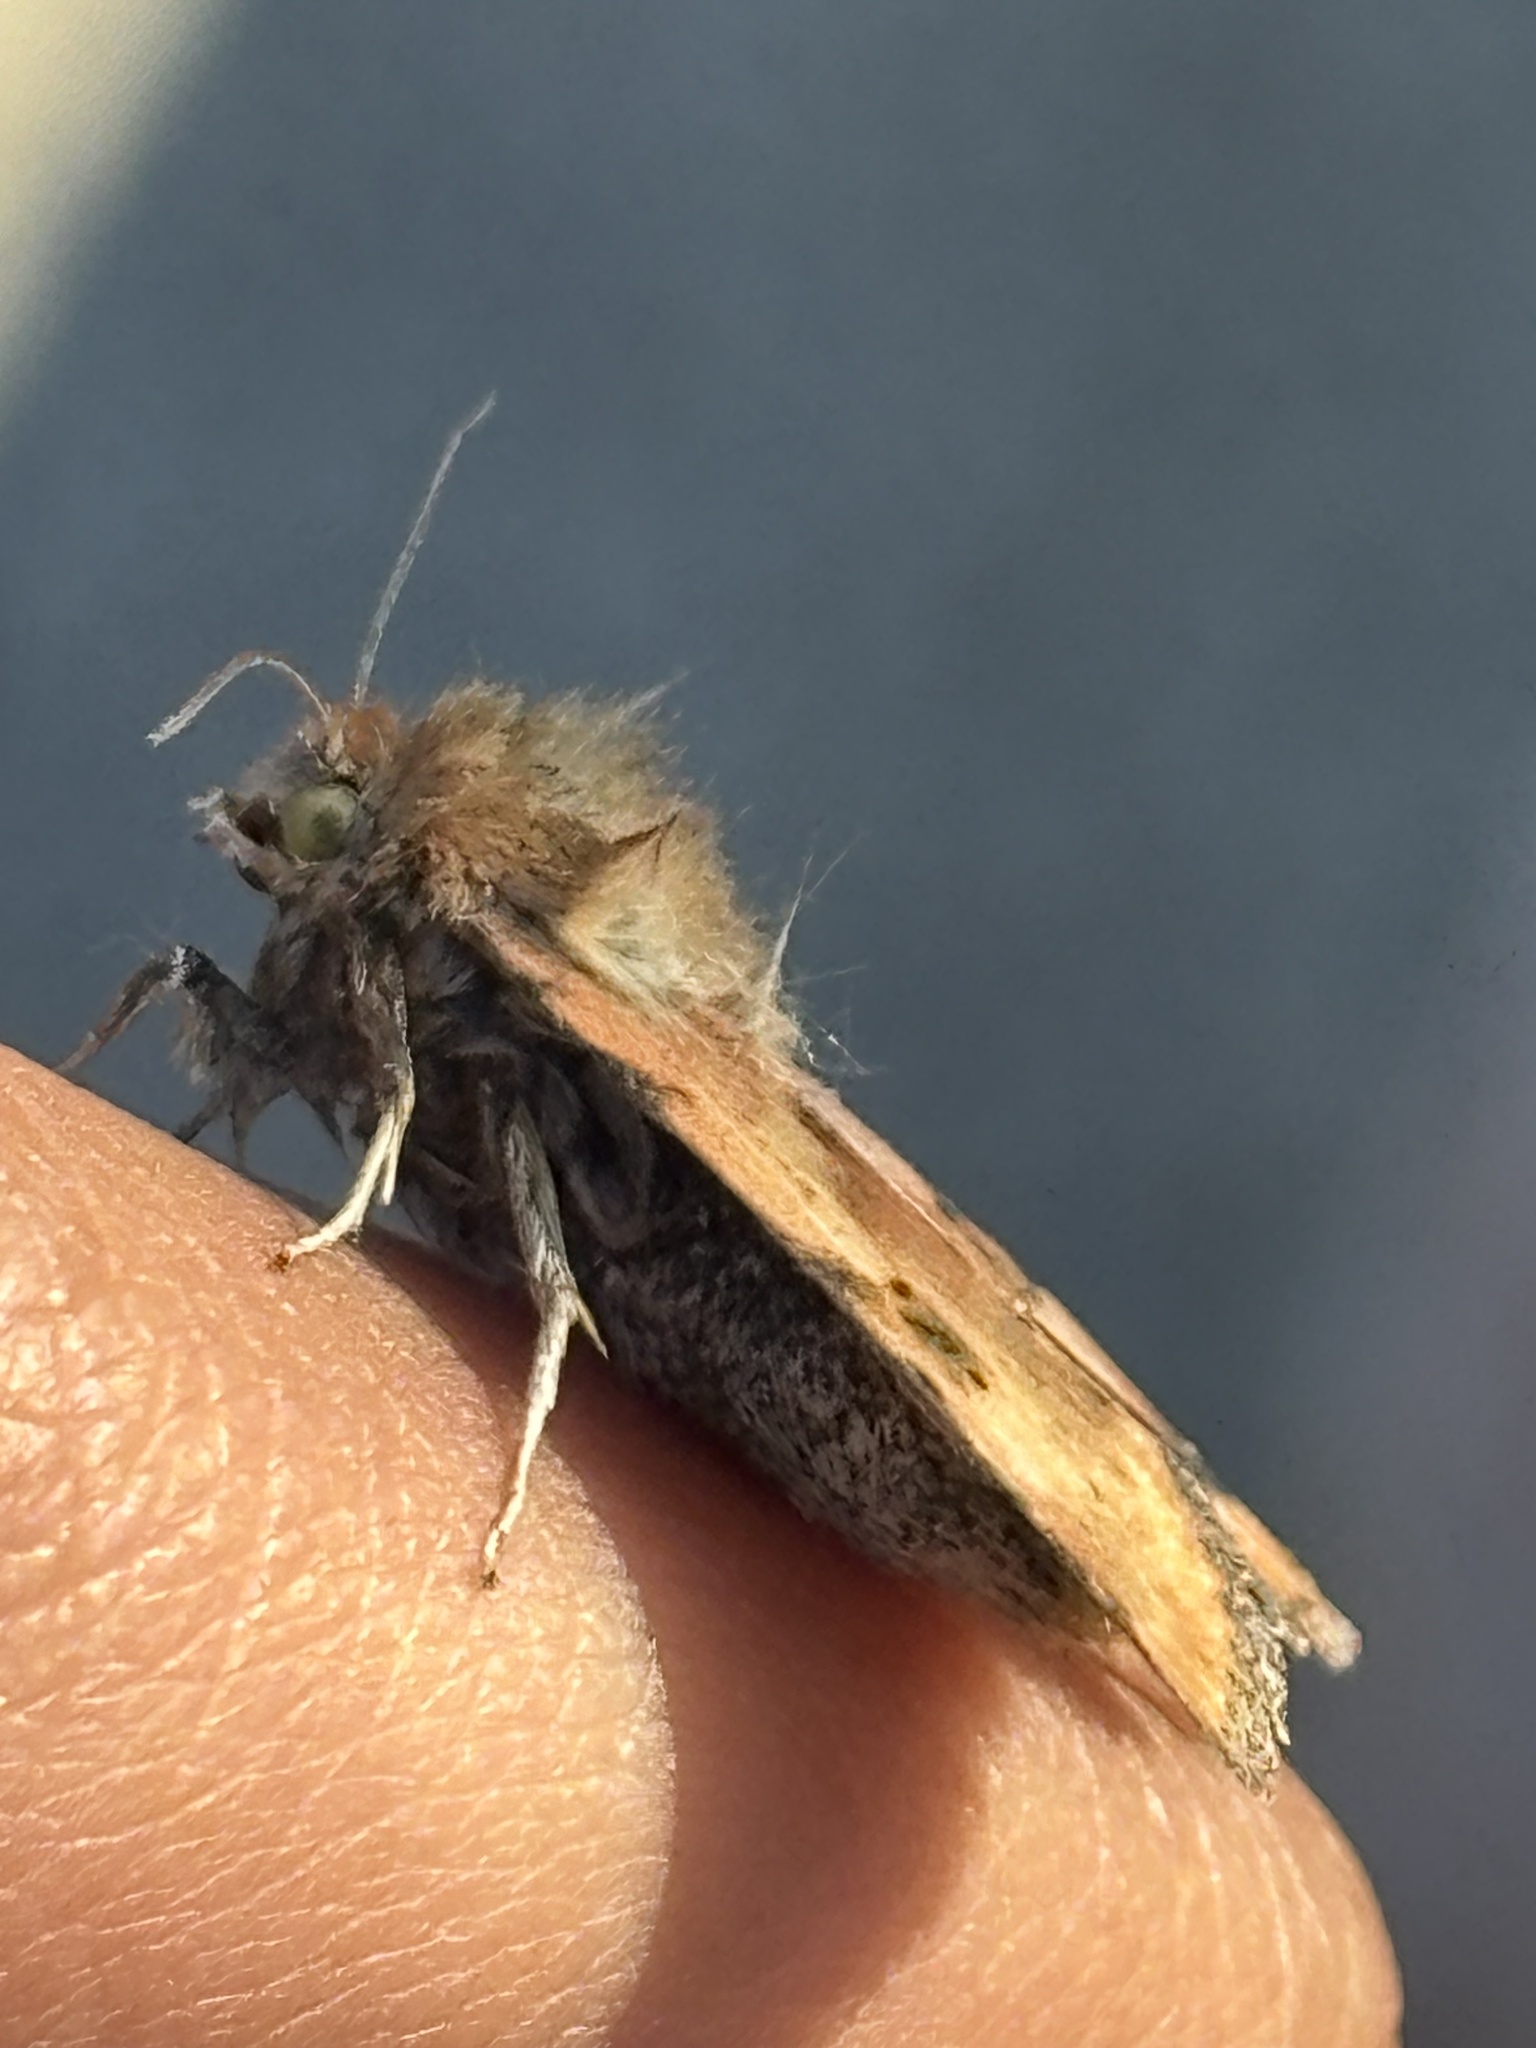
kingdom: Animalia
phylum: Arthropoda
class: Insecta
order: Lepidoptera
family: Noctuidae
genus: Heliothis
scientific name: Heliothis phloxiphaga
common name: Darker spotted straw moth
